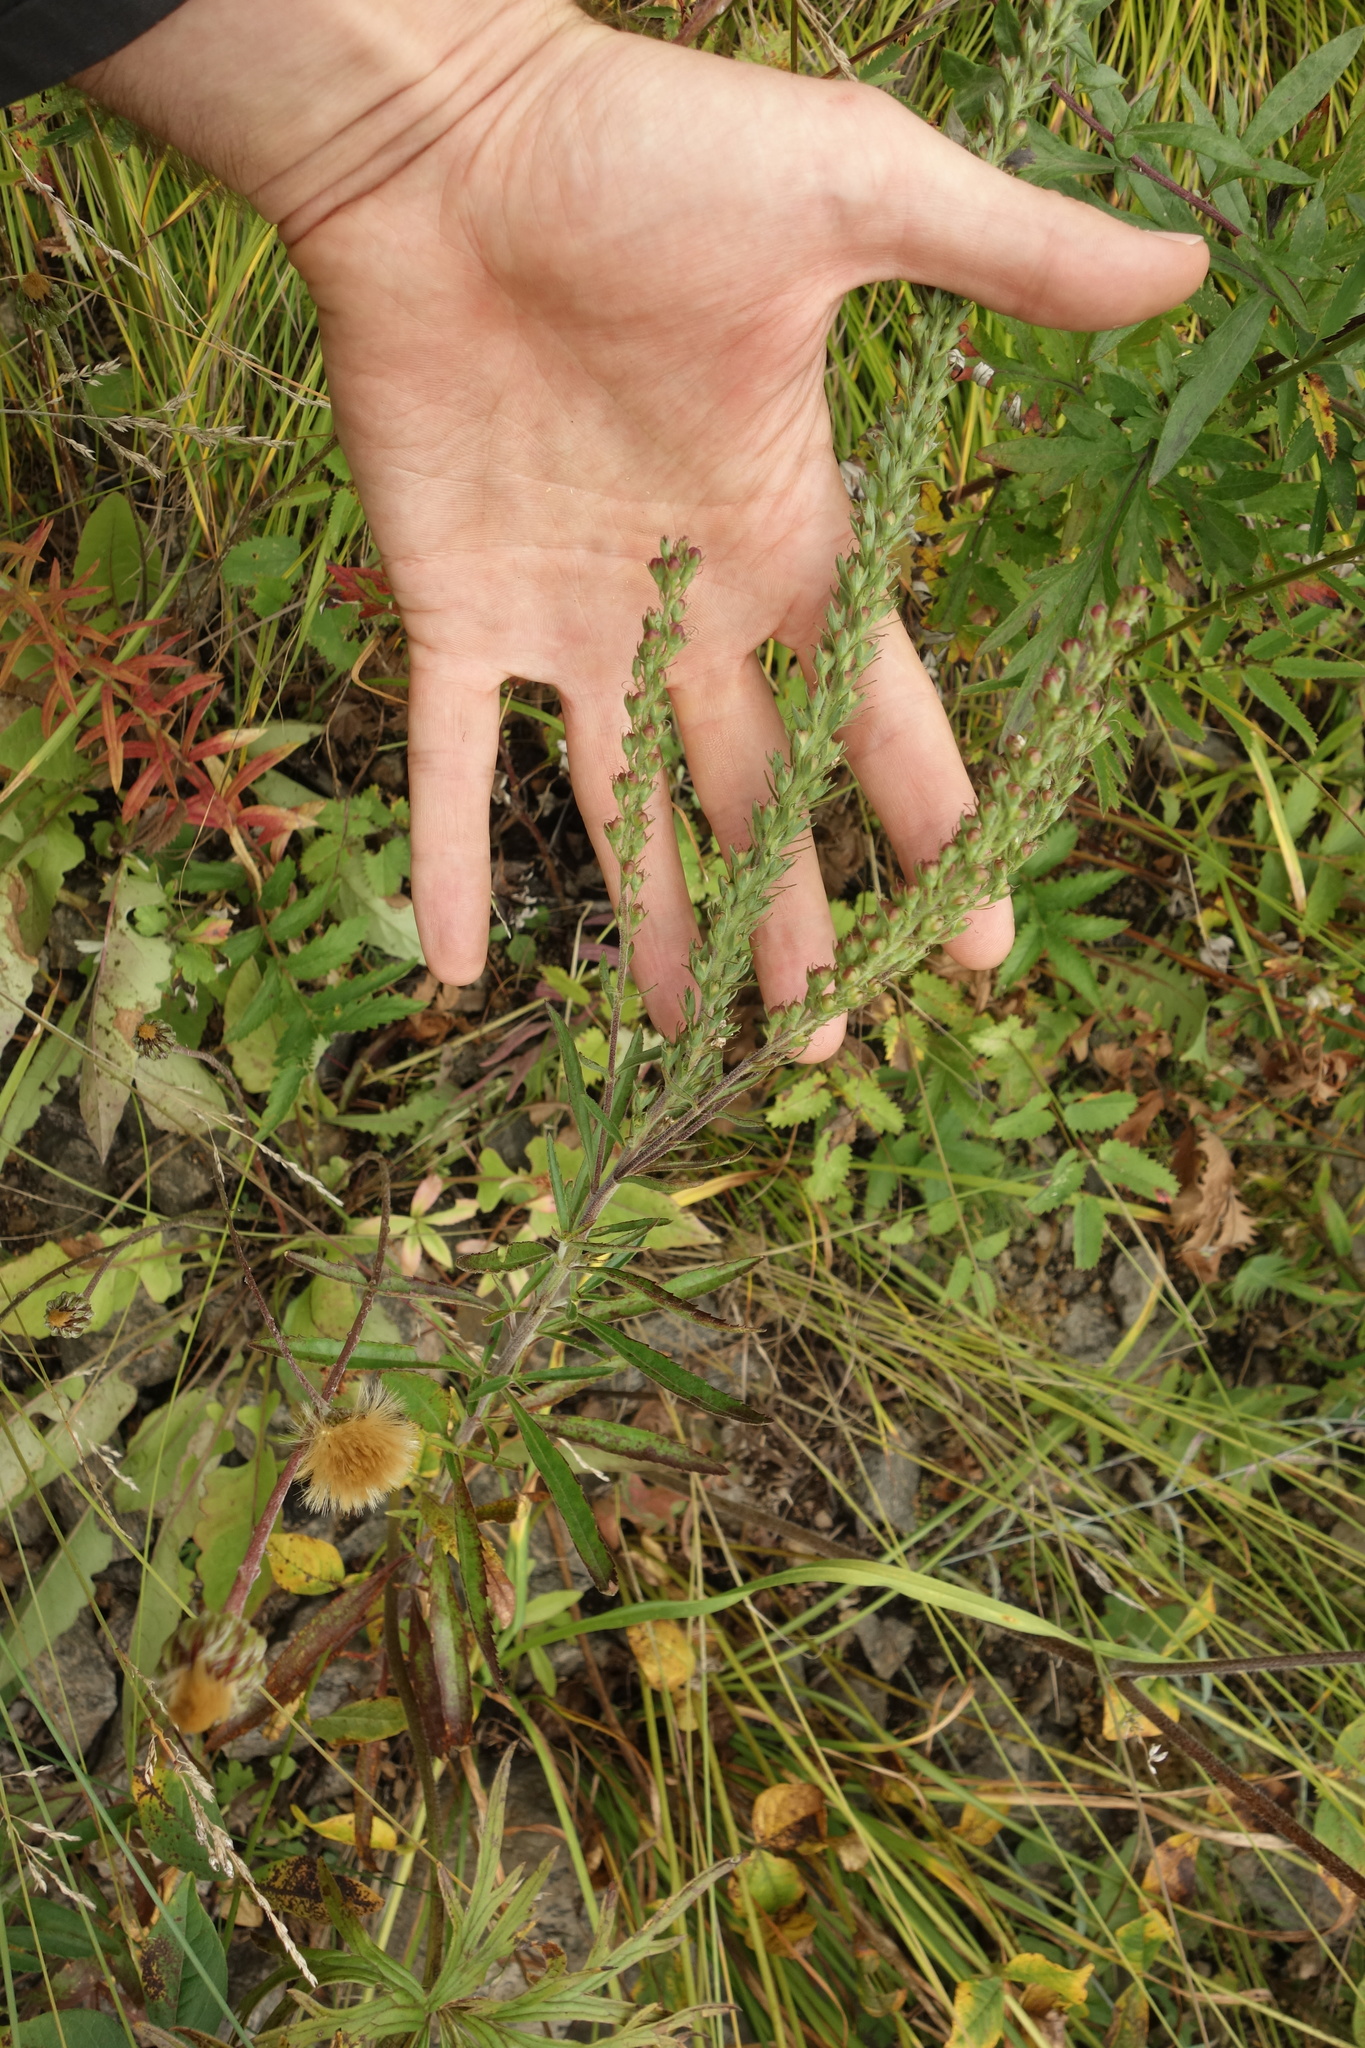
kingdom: Plantae
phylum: Tracheophyta
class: Magnoliopsida
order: Lamiales
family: Plantaginaceae
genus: Veronica
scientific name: Veronica linariifolia
